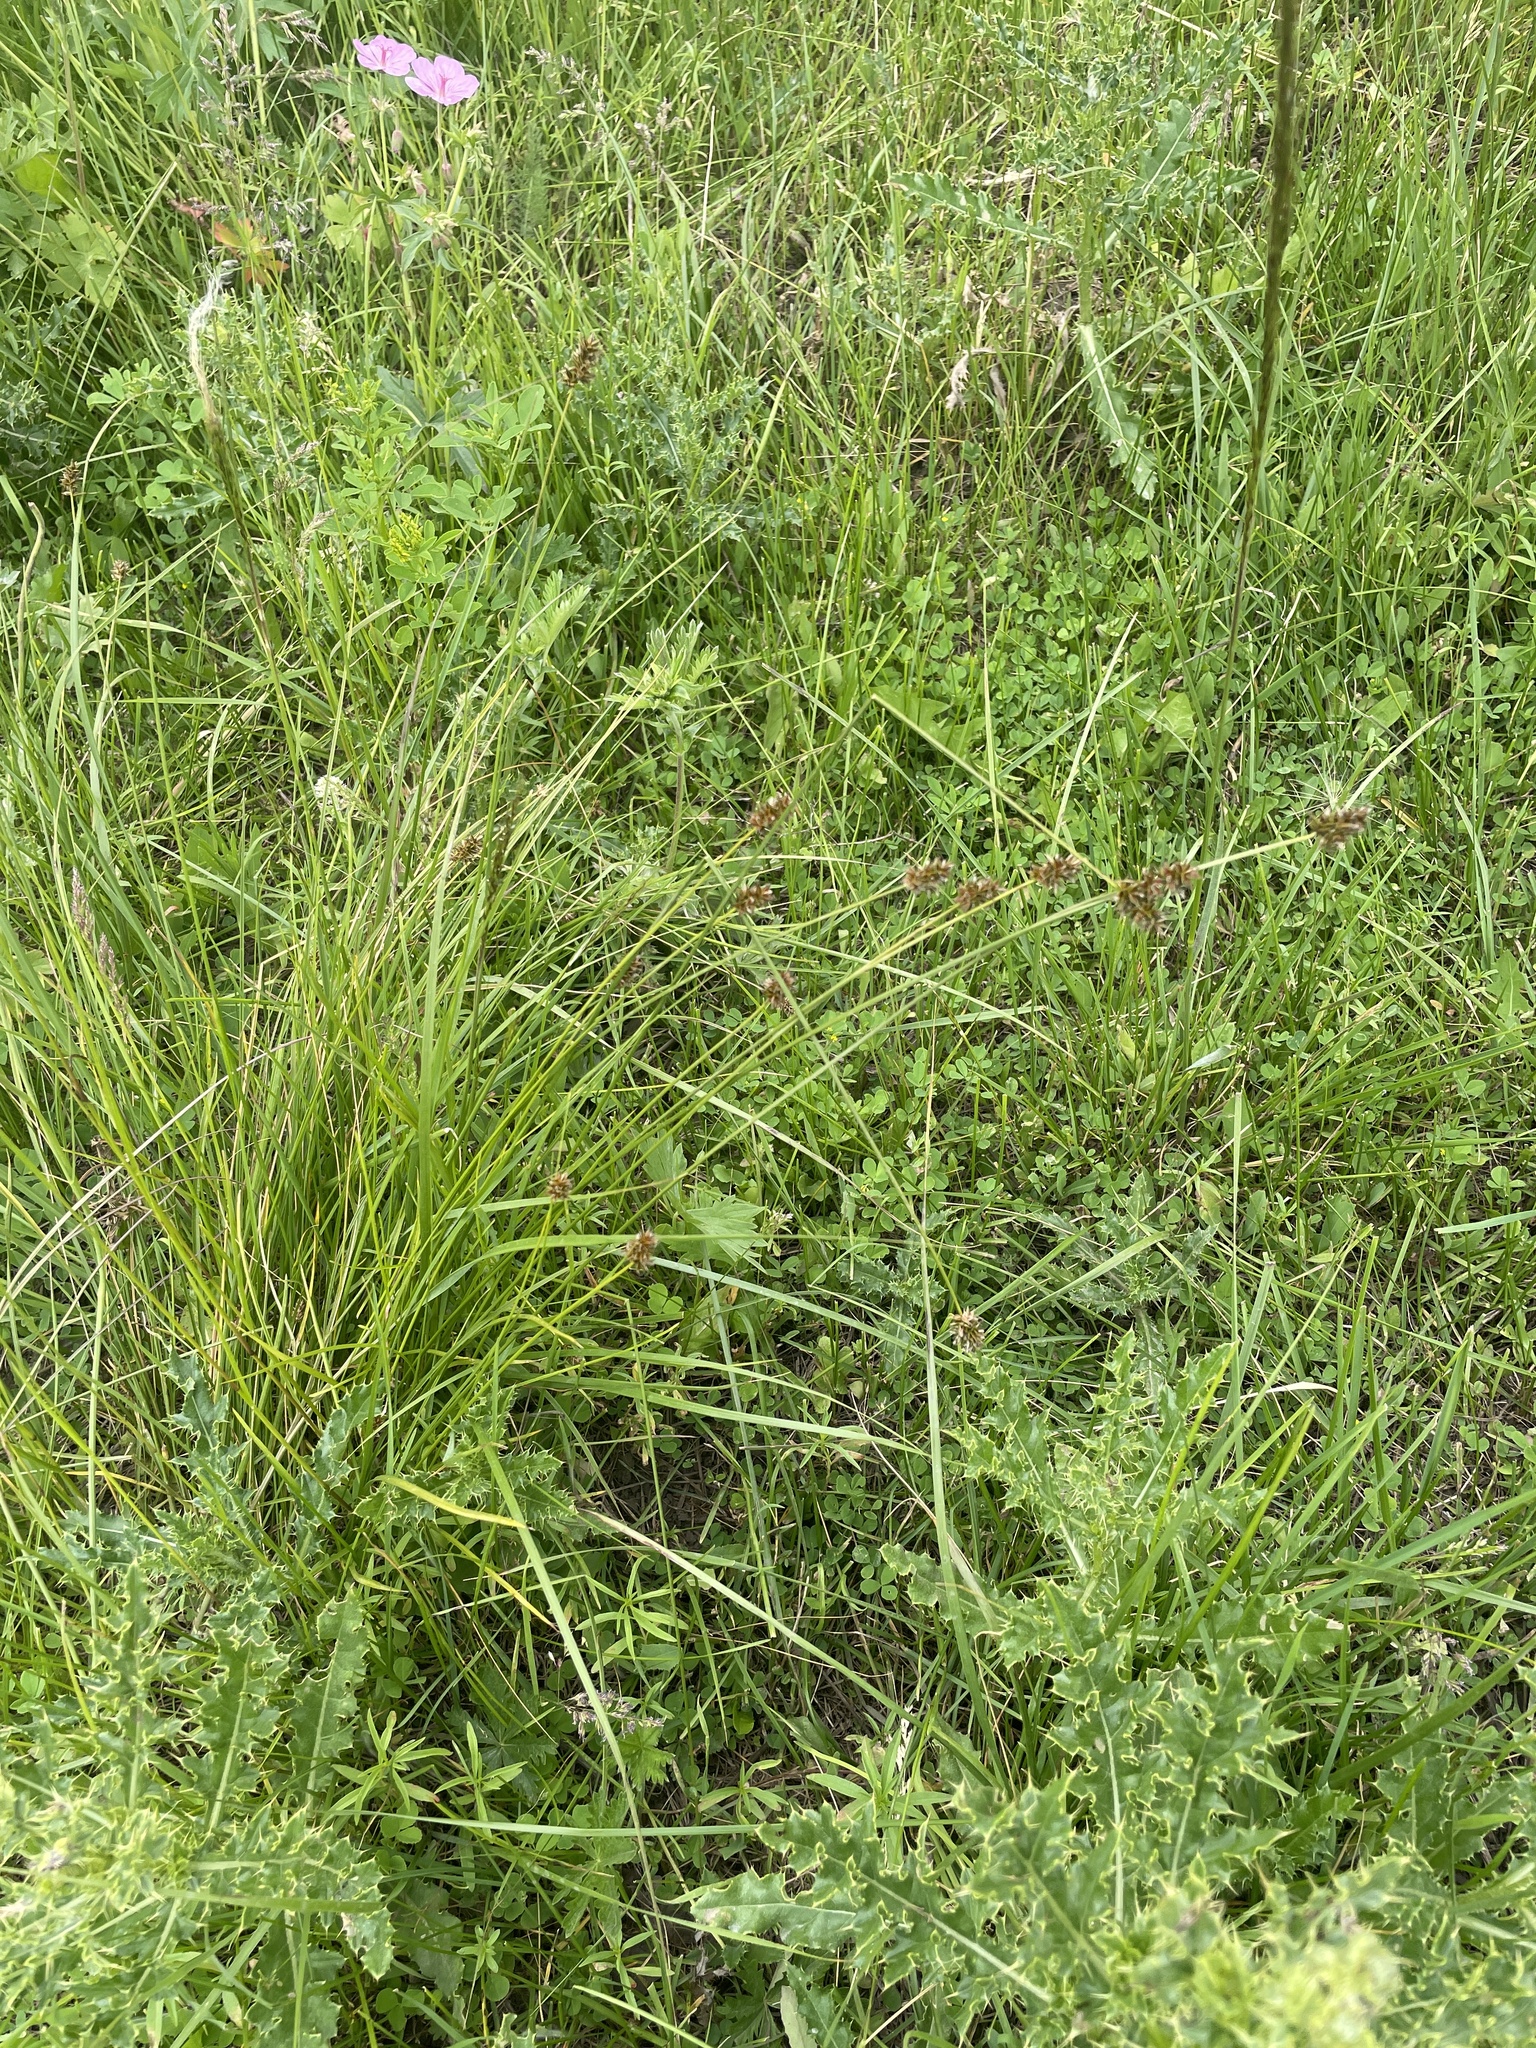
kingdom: Plantae
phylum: Tracheophyta
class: Liliopsida
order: Poales
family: Cyperaceae
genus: Carex
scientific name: Carex hoodii
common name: Hood's sedge
